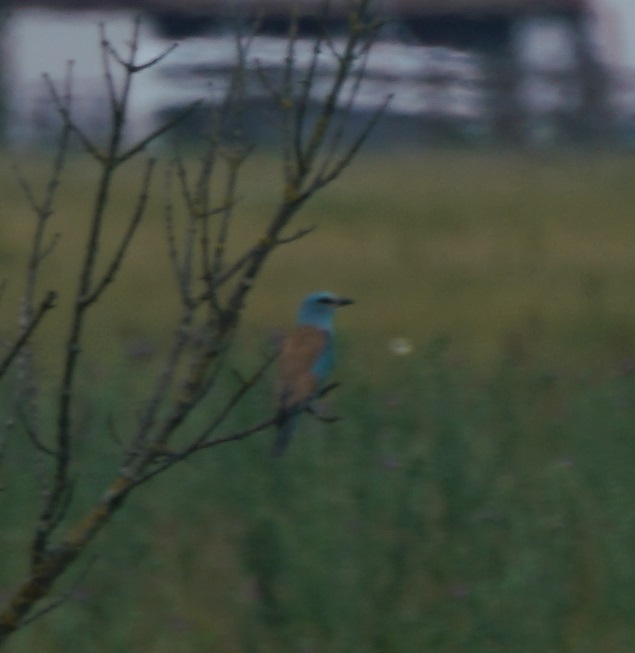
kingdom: Animalia
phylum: Chordata
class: Aves
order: Coraciiformes
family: Coraciidae
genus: Coracias
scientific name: Coracias garrulus
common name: European roller
